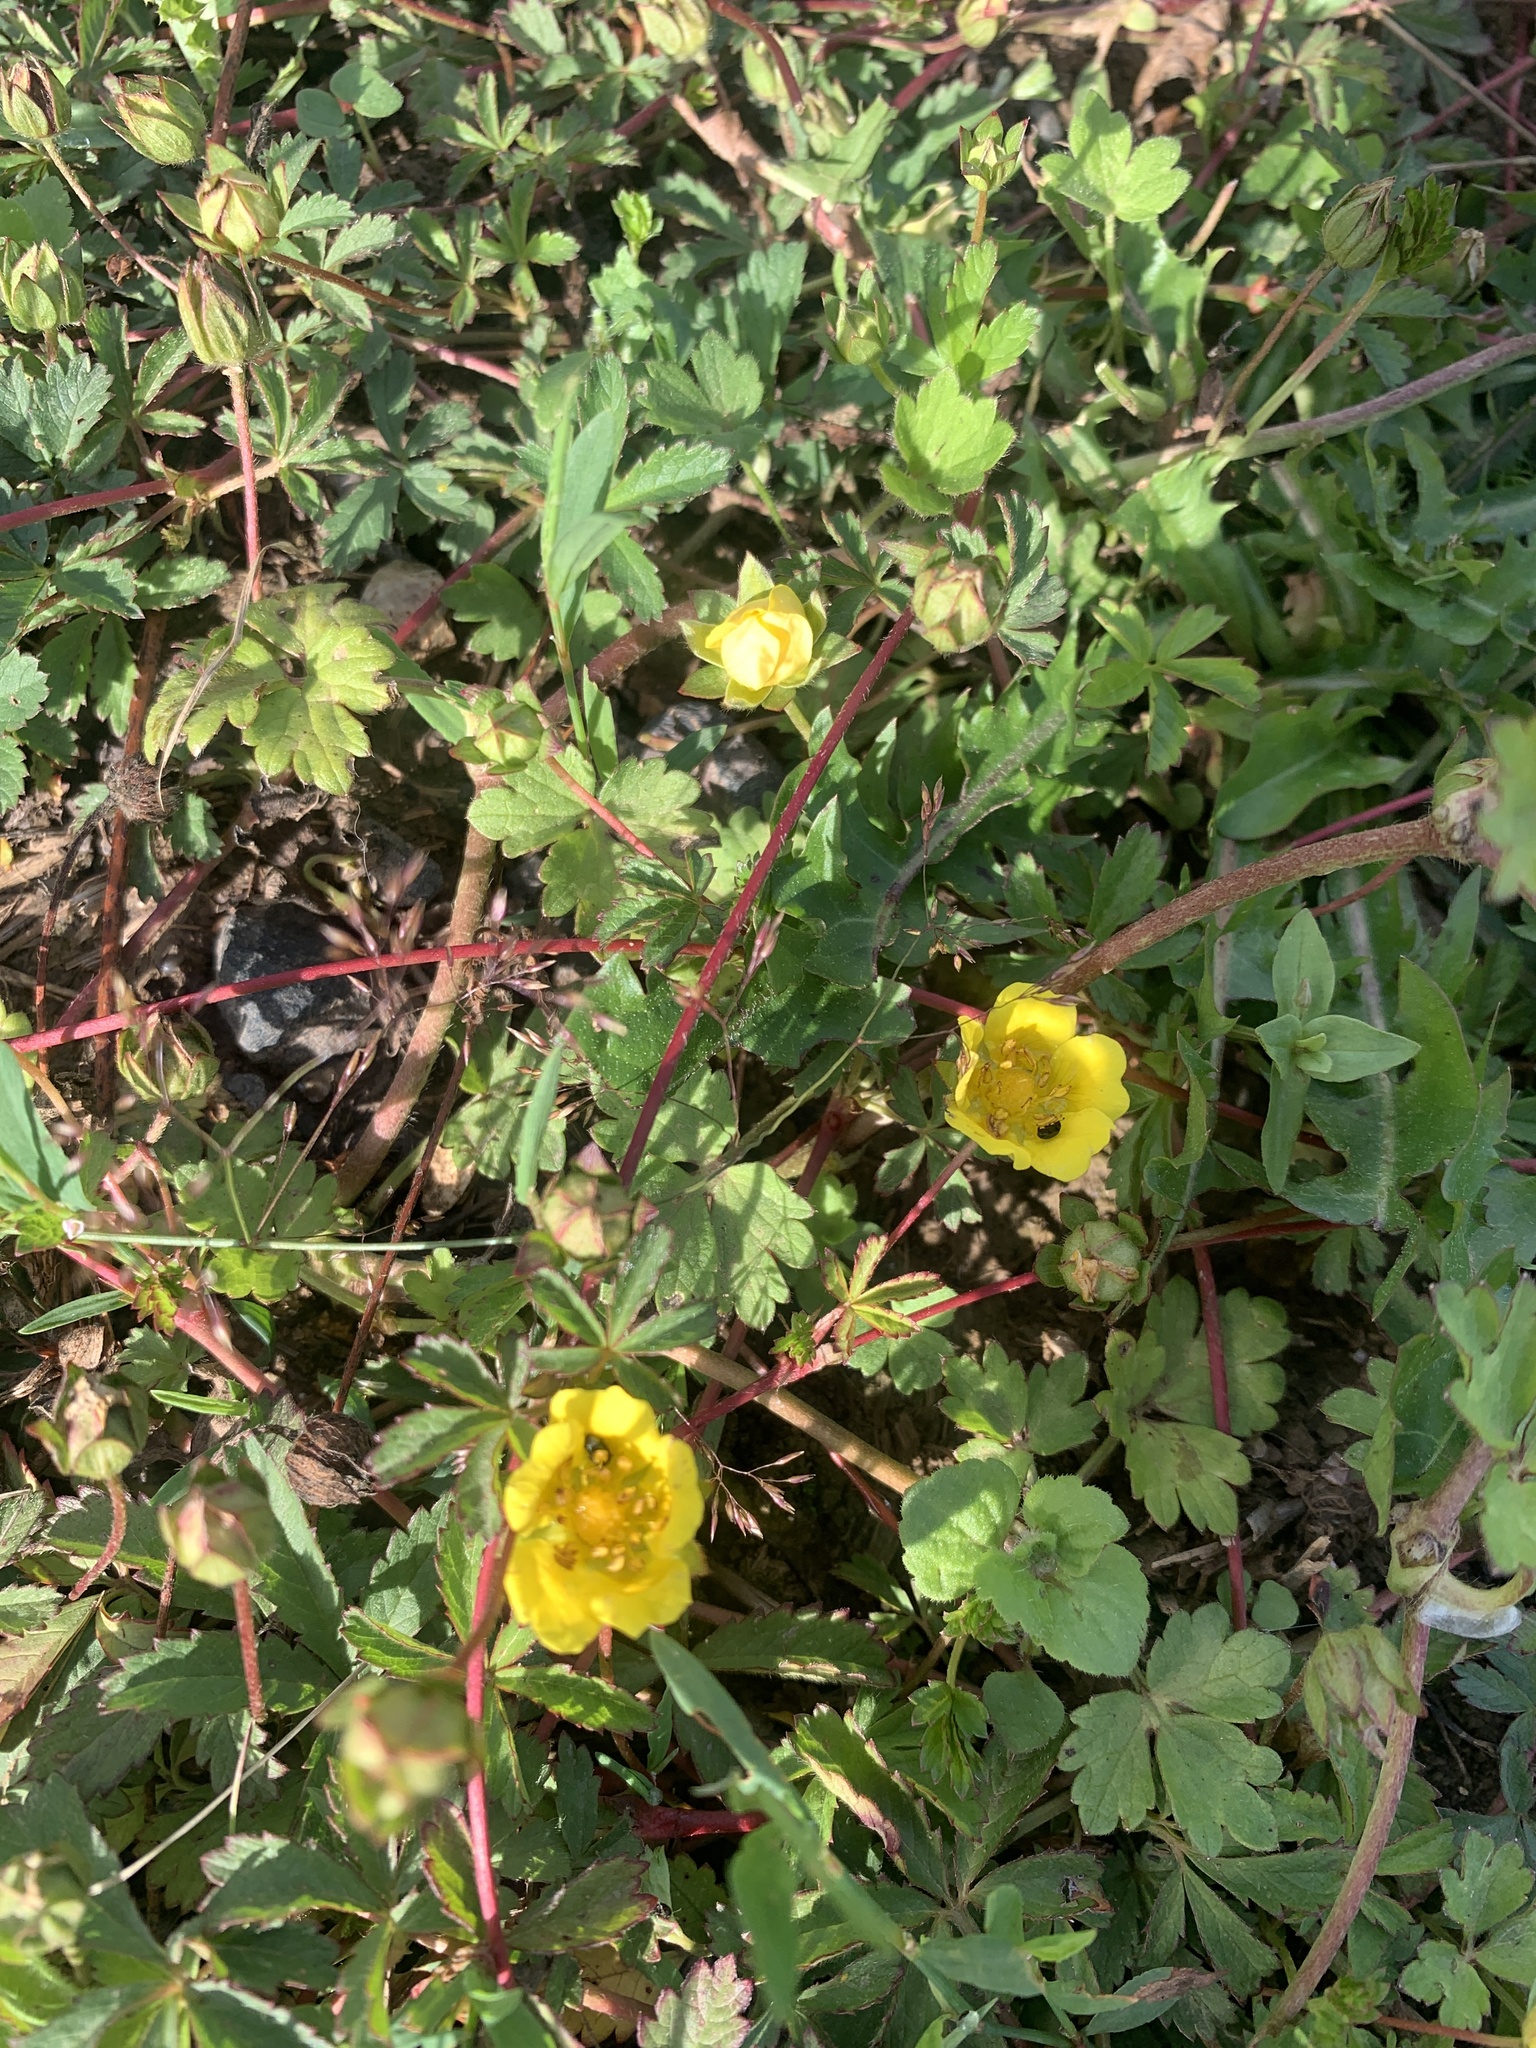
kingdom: Plantae
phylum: Tracheophyta
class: Magnoliopsida
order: Rosales
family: Rosaceae
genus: Potentilla
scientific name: Potentilla reptans
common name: Creeping cinquefoil
